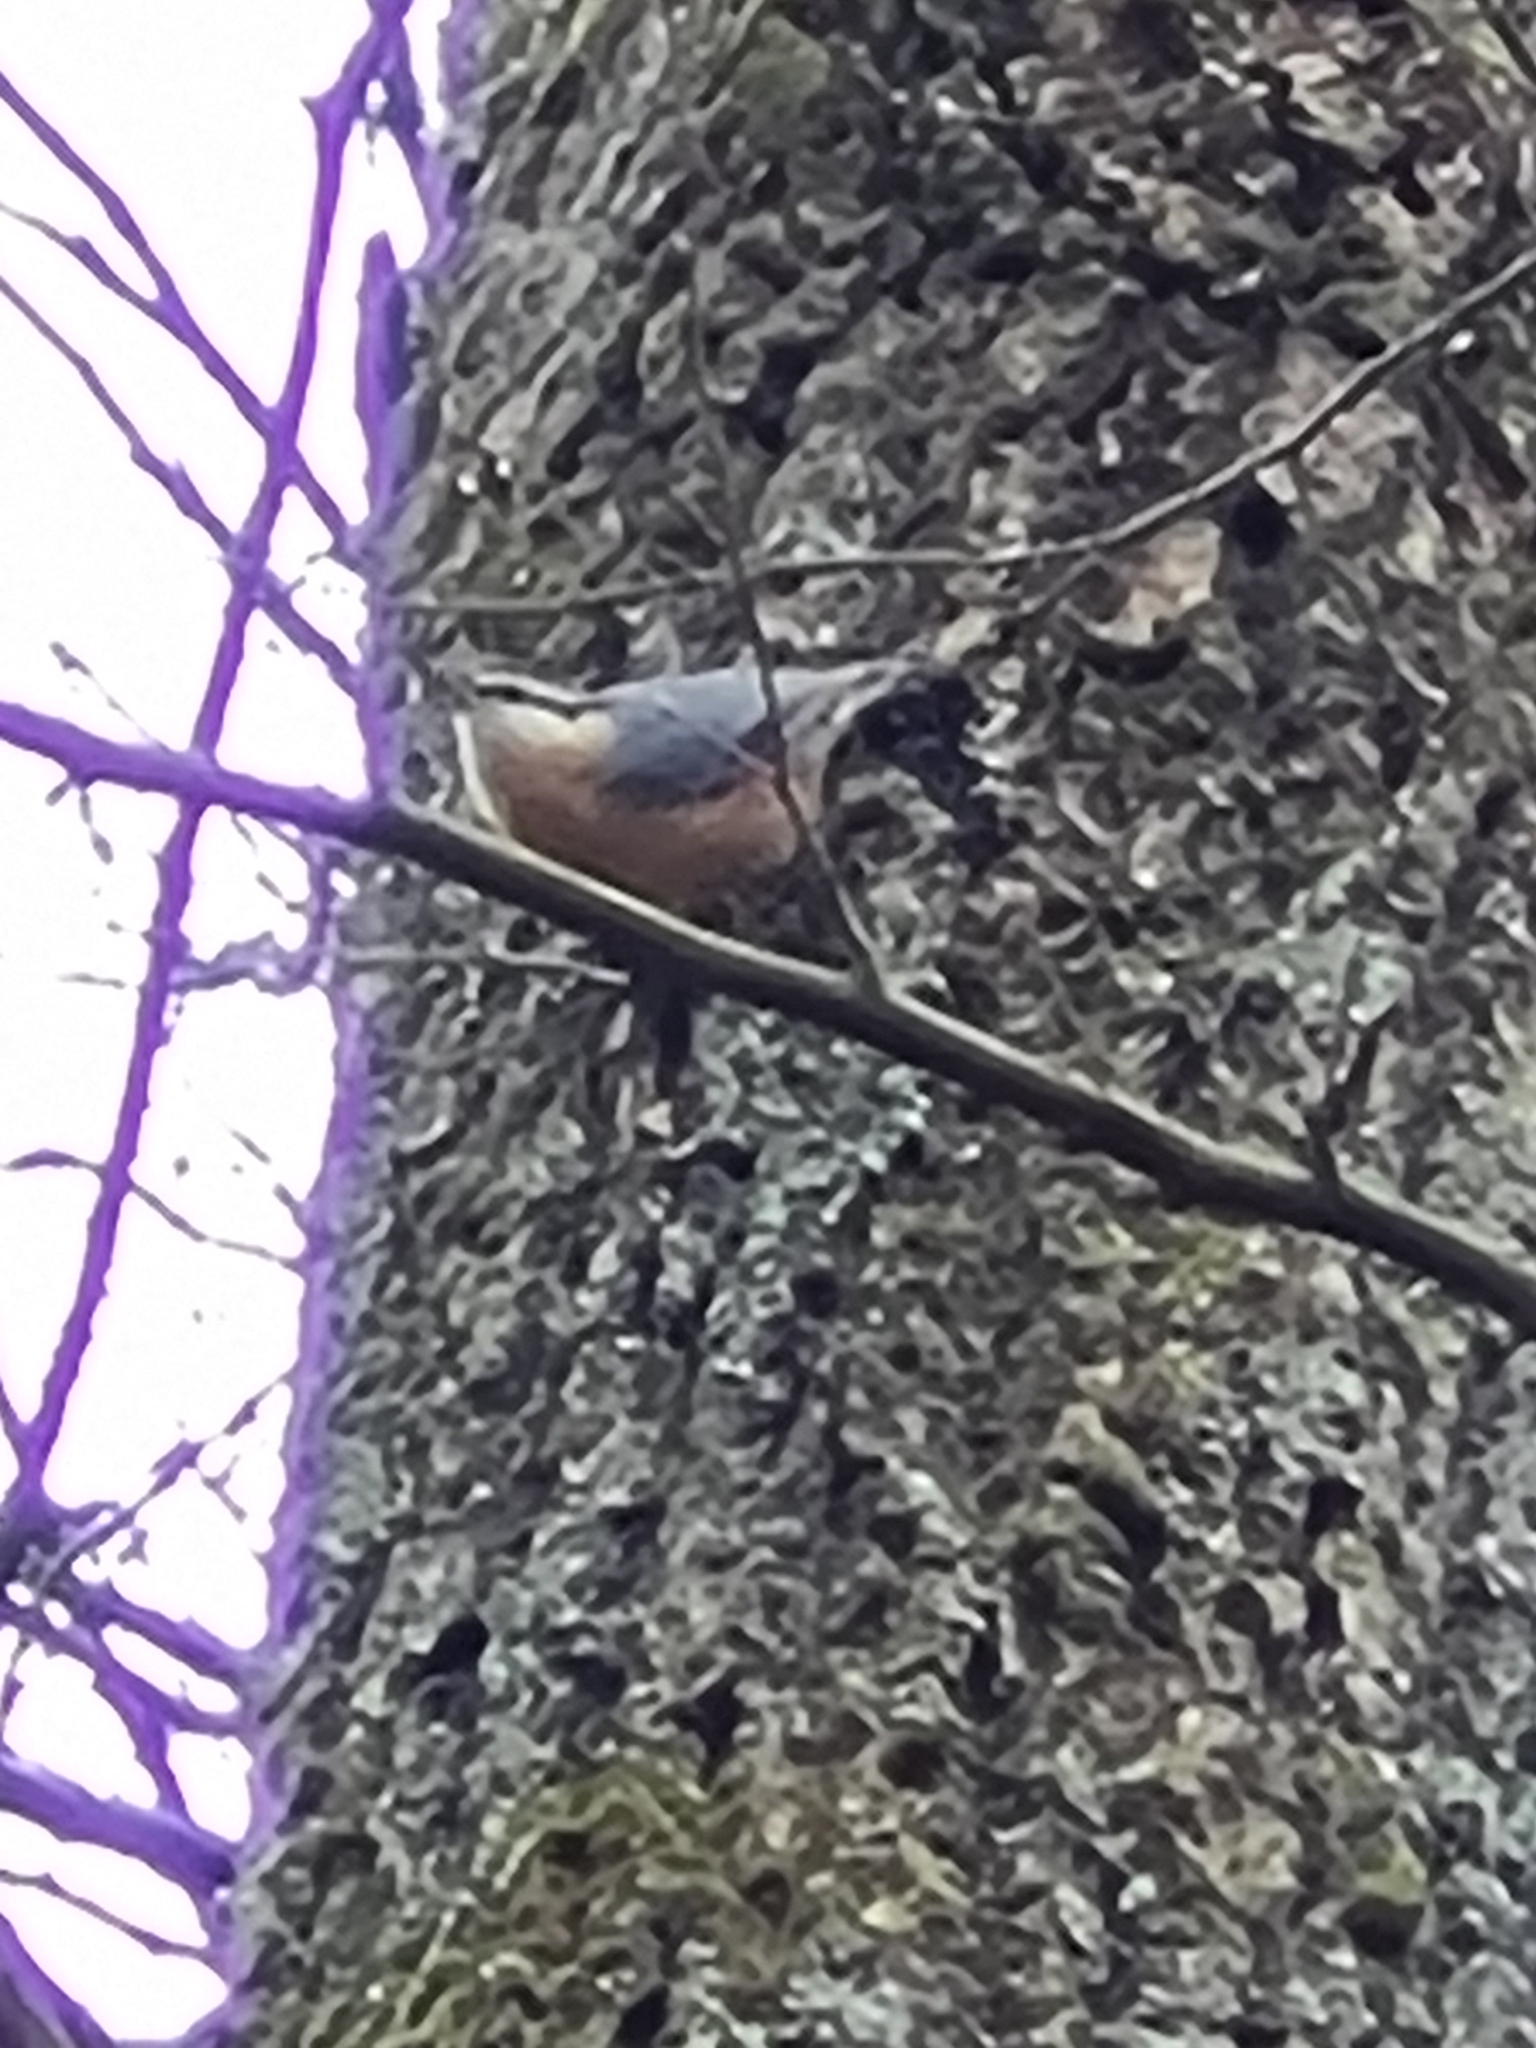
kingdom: Animalia
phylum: Chordata
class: Aves
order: Passeriformes
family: Sittidae
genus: Sitta
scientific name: Sitta europaea
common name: Eurasian nuthatch
